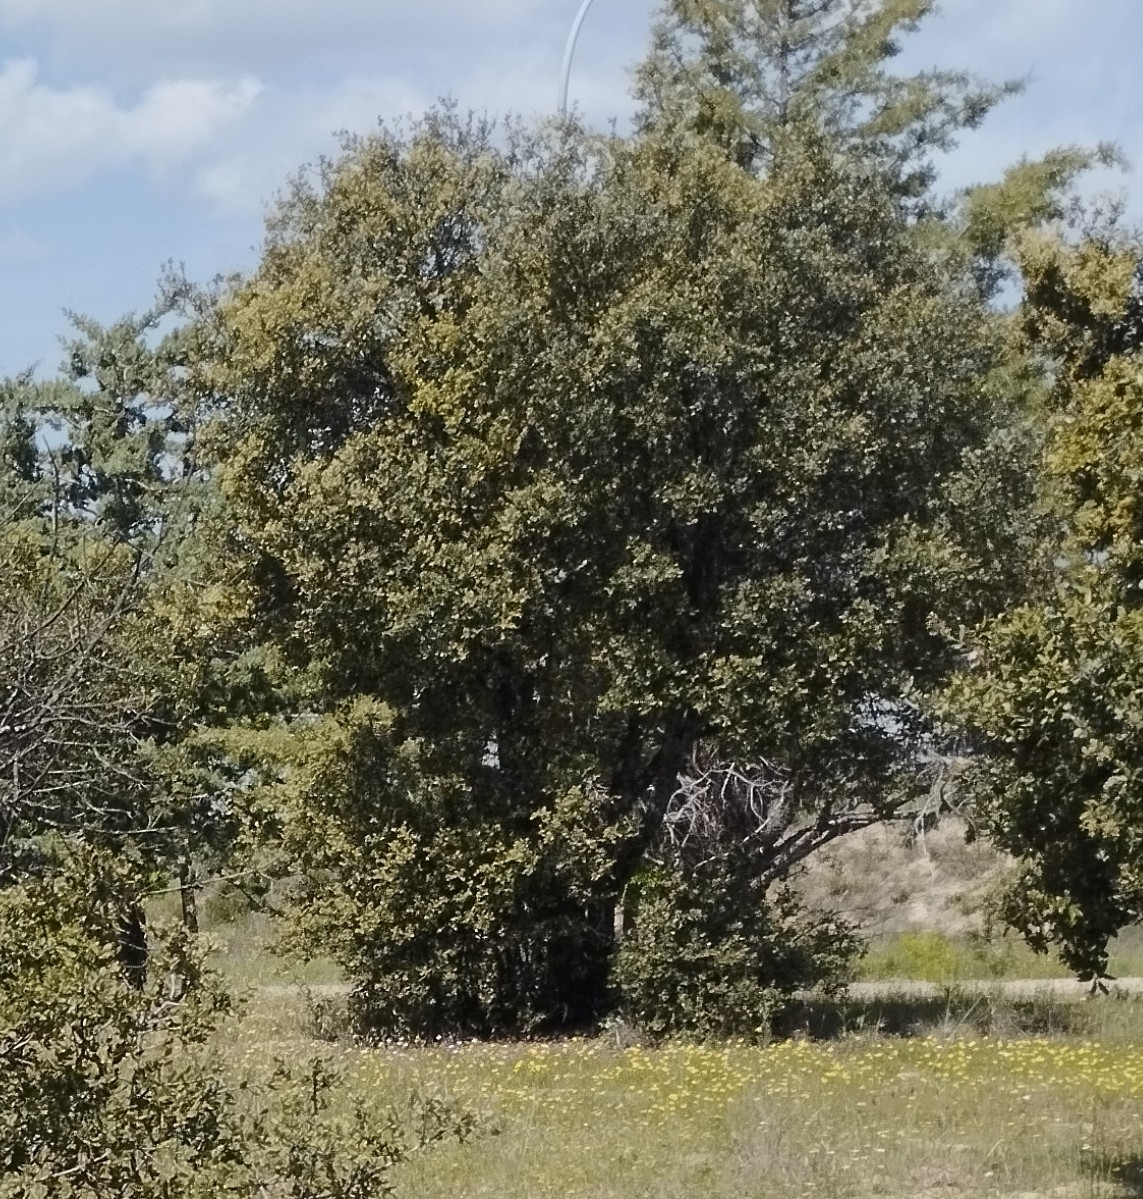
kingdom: Plantae
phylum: Tracheophyta
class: Magnoliopsida
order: Fagales
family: Fagaceae
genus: Quercus
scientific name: Quercus rotundifolia
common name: Holm oak
